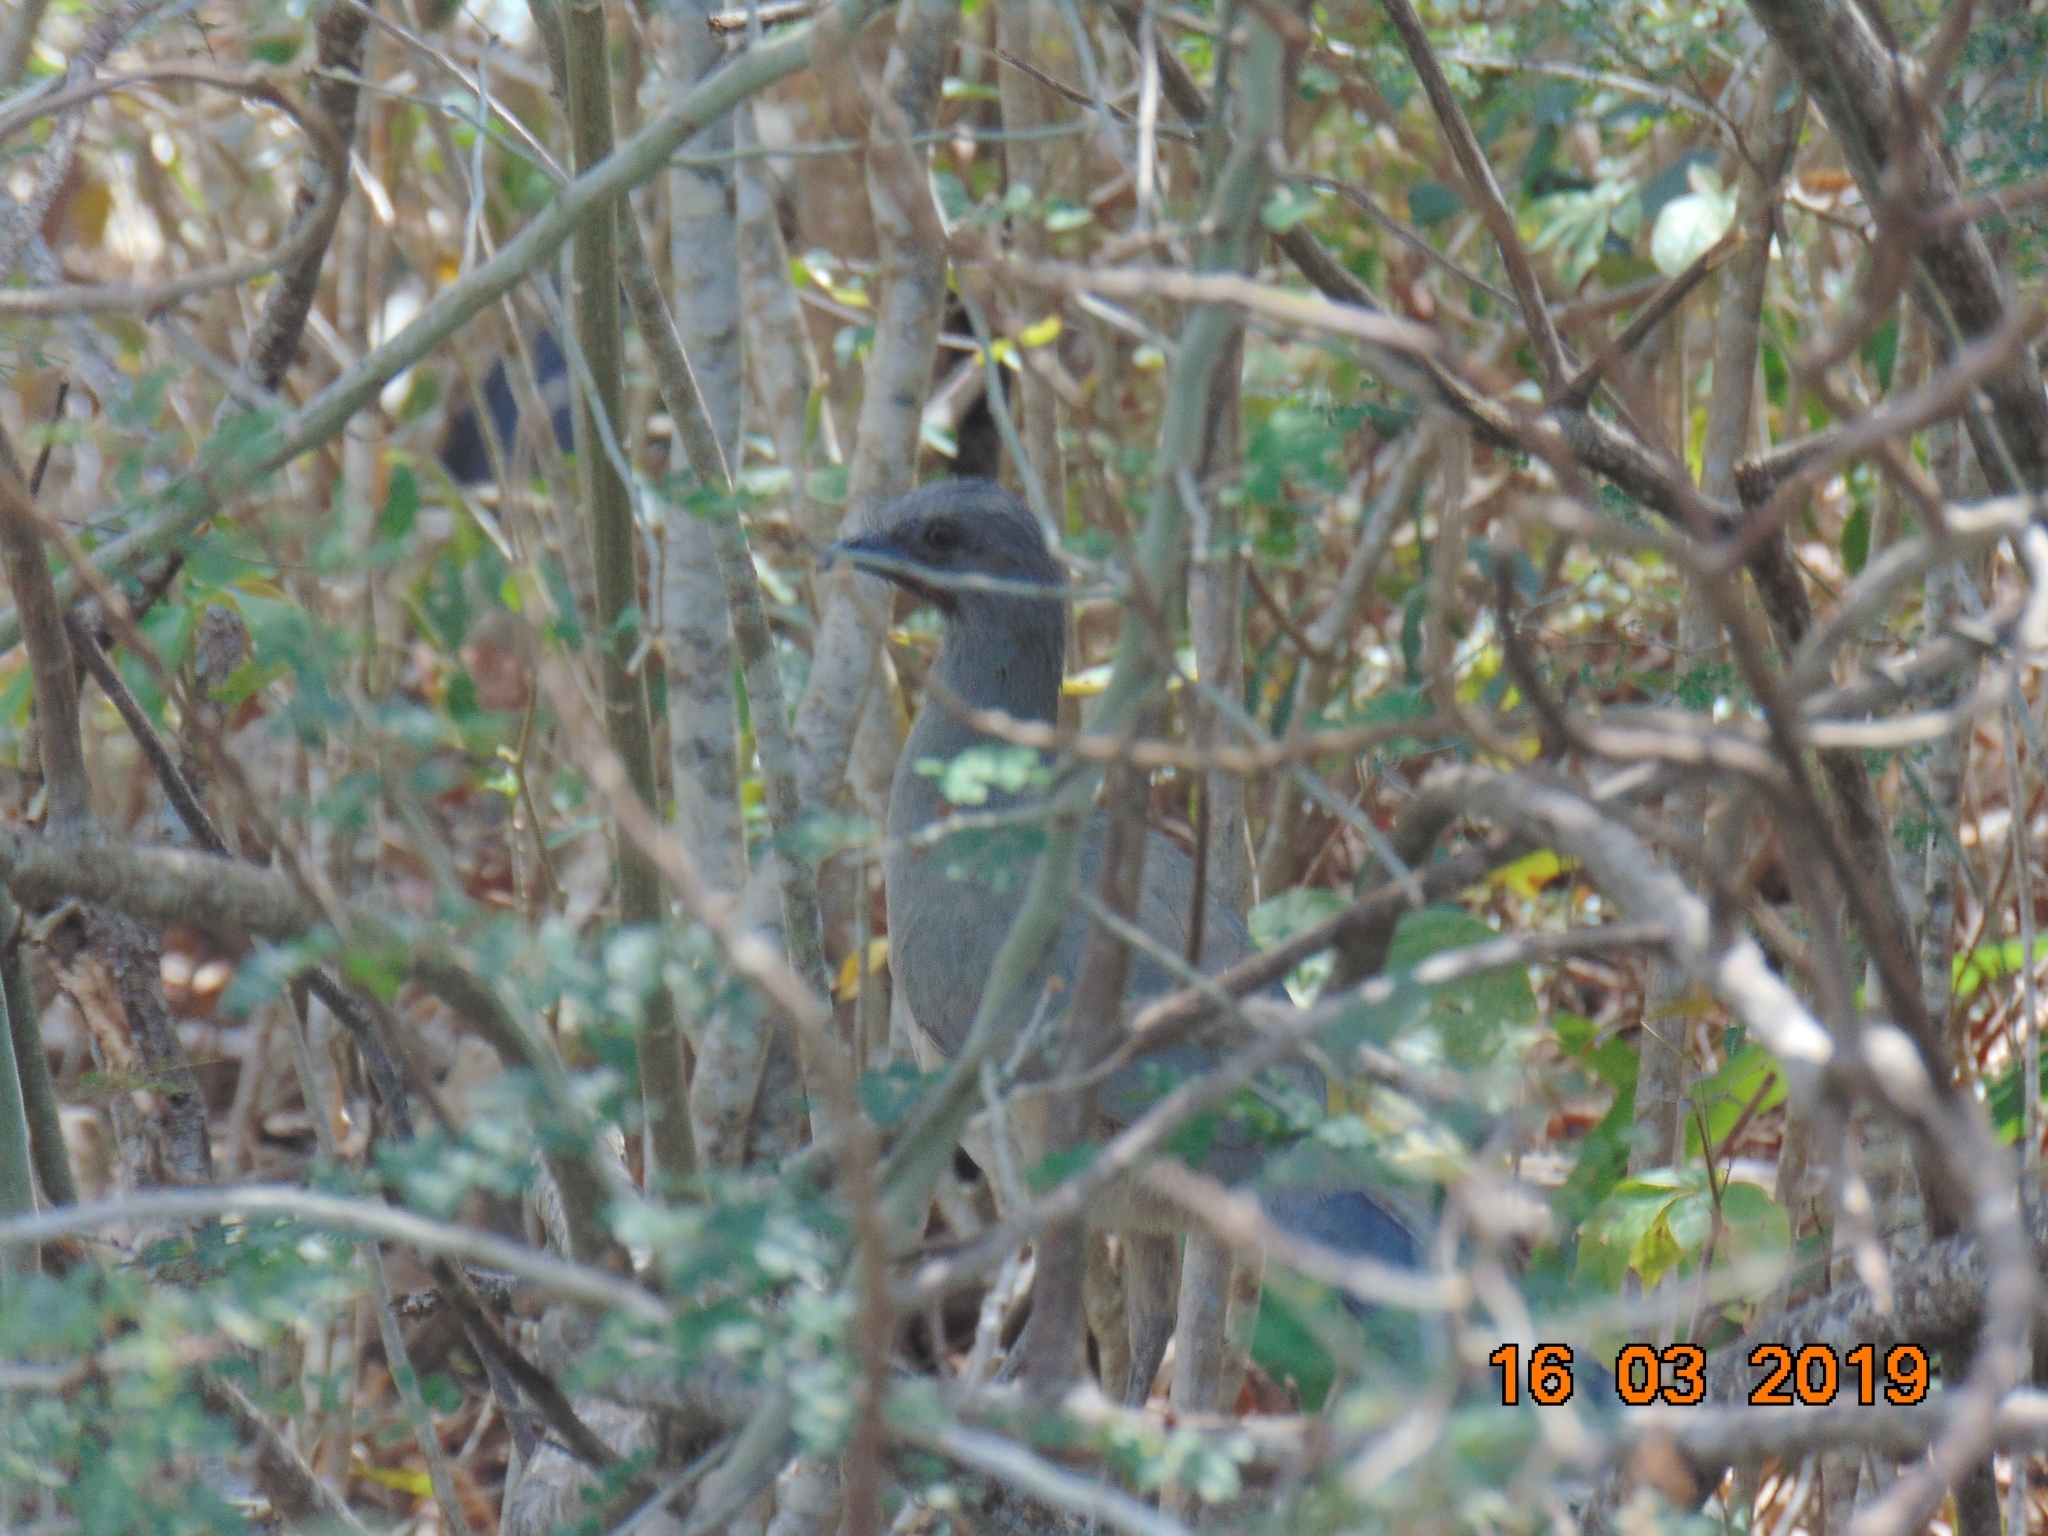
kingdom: Animalia
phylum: Chordata
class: Aves
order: Galliformes
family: Cracidae
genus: Ortalis
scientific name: Ortalis vetula
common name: Plain chachalaca
